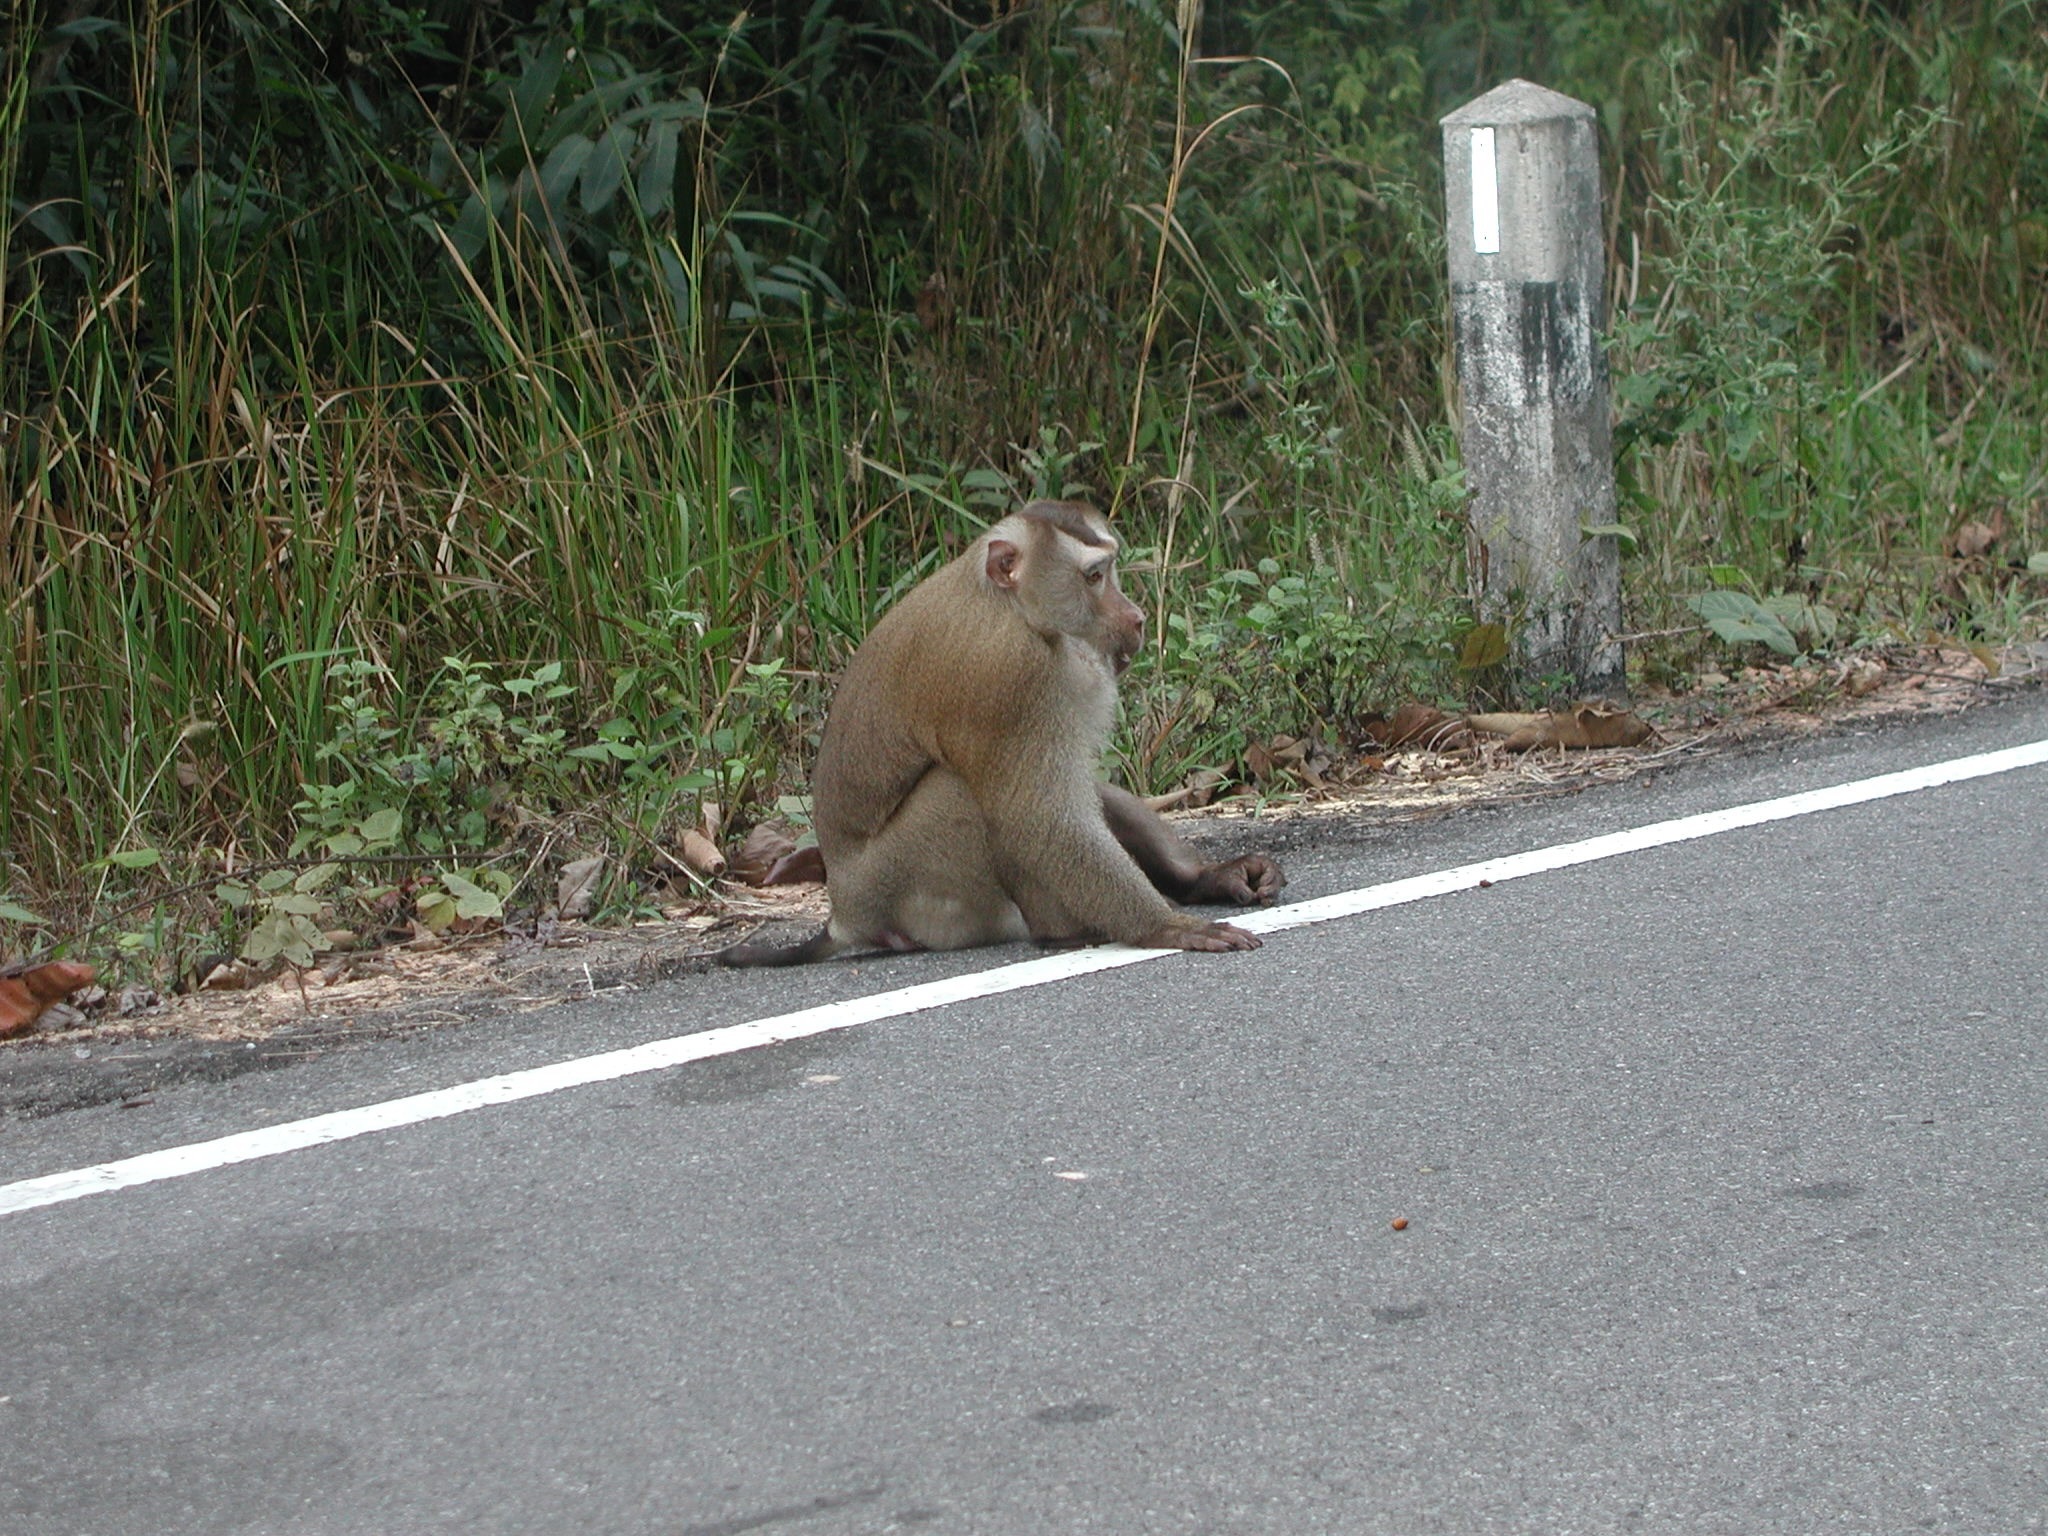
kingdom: Animalia
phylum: Chordata
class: Mammalia
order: Primates
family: Cercopithecidae
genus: Macaca
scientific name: Macaca leonina
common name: Northern pig-tailed macaque
